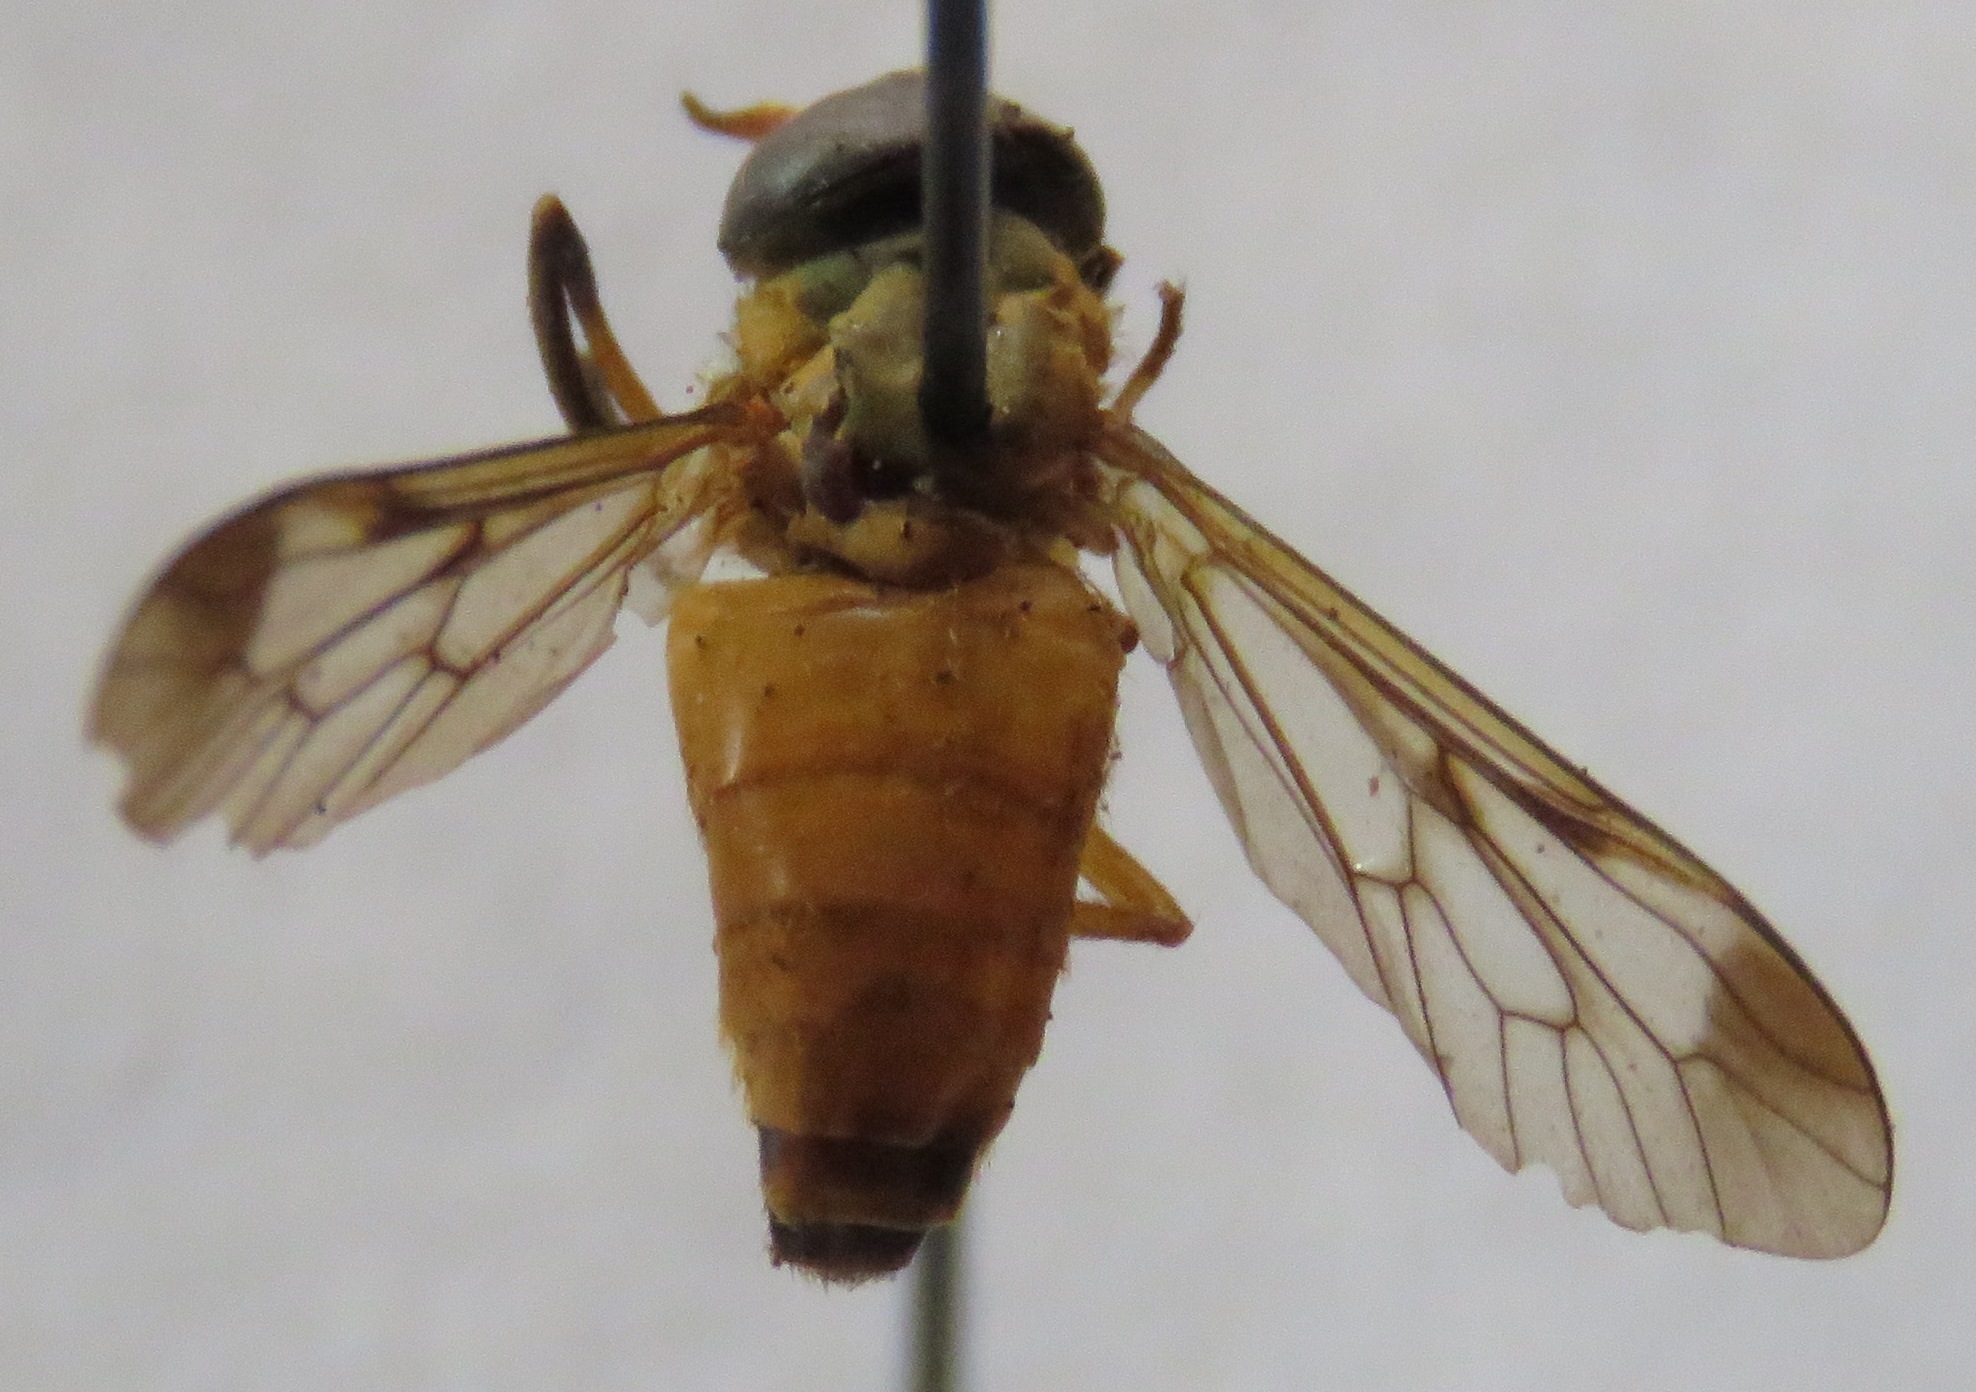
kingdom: Animalia
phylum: Arthropoda
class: Insecta
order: Diptera
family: Tabanidae
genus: Diachlorus
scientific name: Diachlorus ferrugatus
